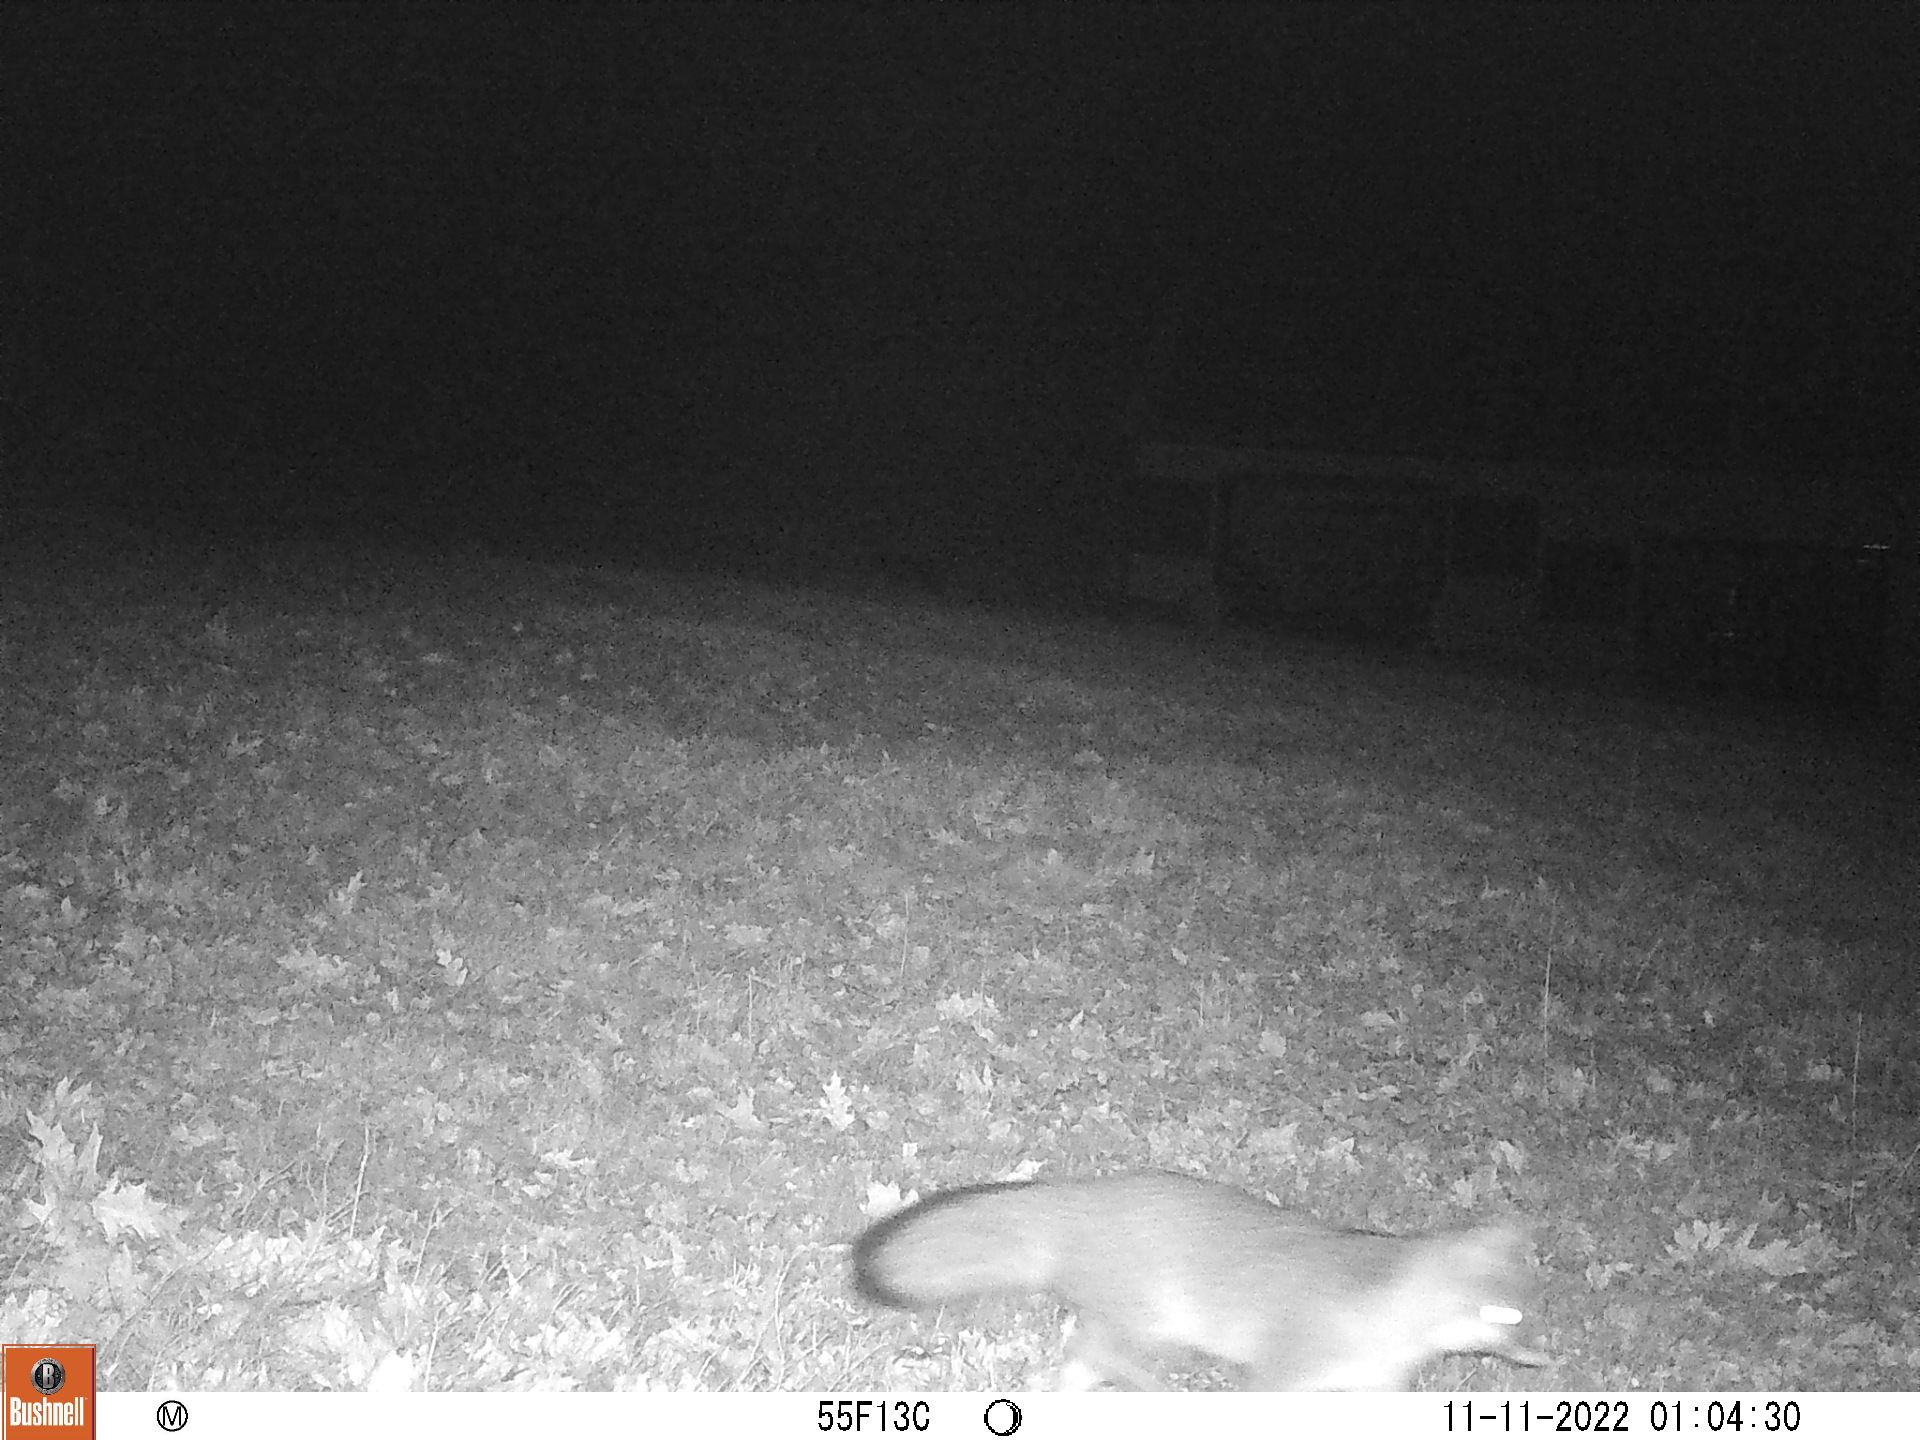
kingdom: Animalia
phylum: Chordata
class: Mammalia
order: Carnivora
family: Canidae
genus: Urocyon
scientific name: Urocyon cinereoargenteus
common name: Gray fox
